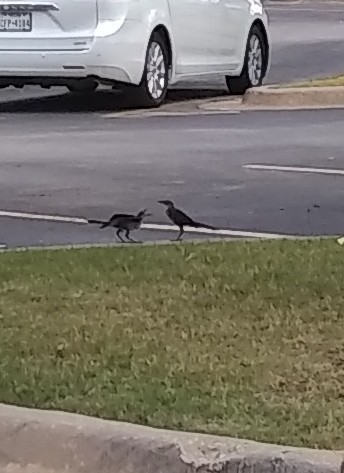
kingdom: Animalia
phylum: Chordata
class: Aves
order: Passeriformes
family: Icteridae
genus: Quiscalus
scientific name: Quiscalus mexicanus
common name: Great-tailed grackle
